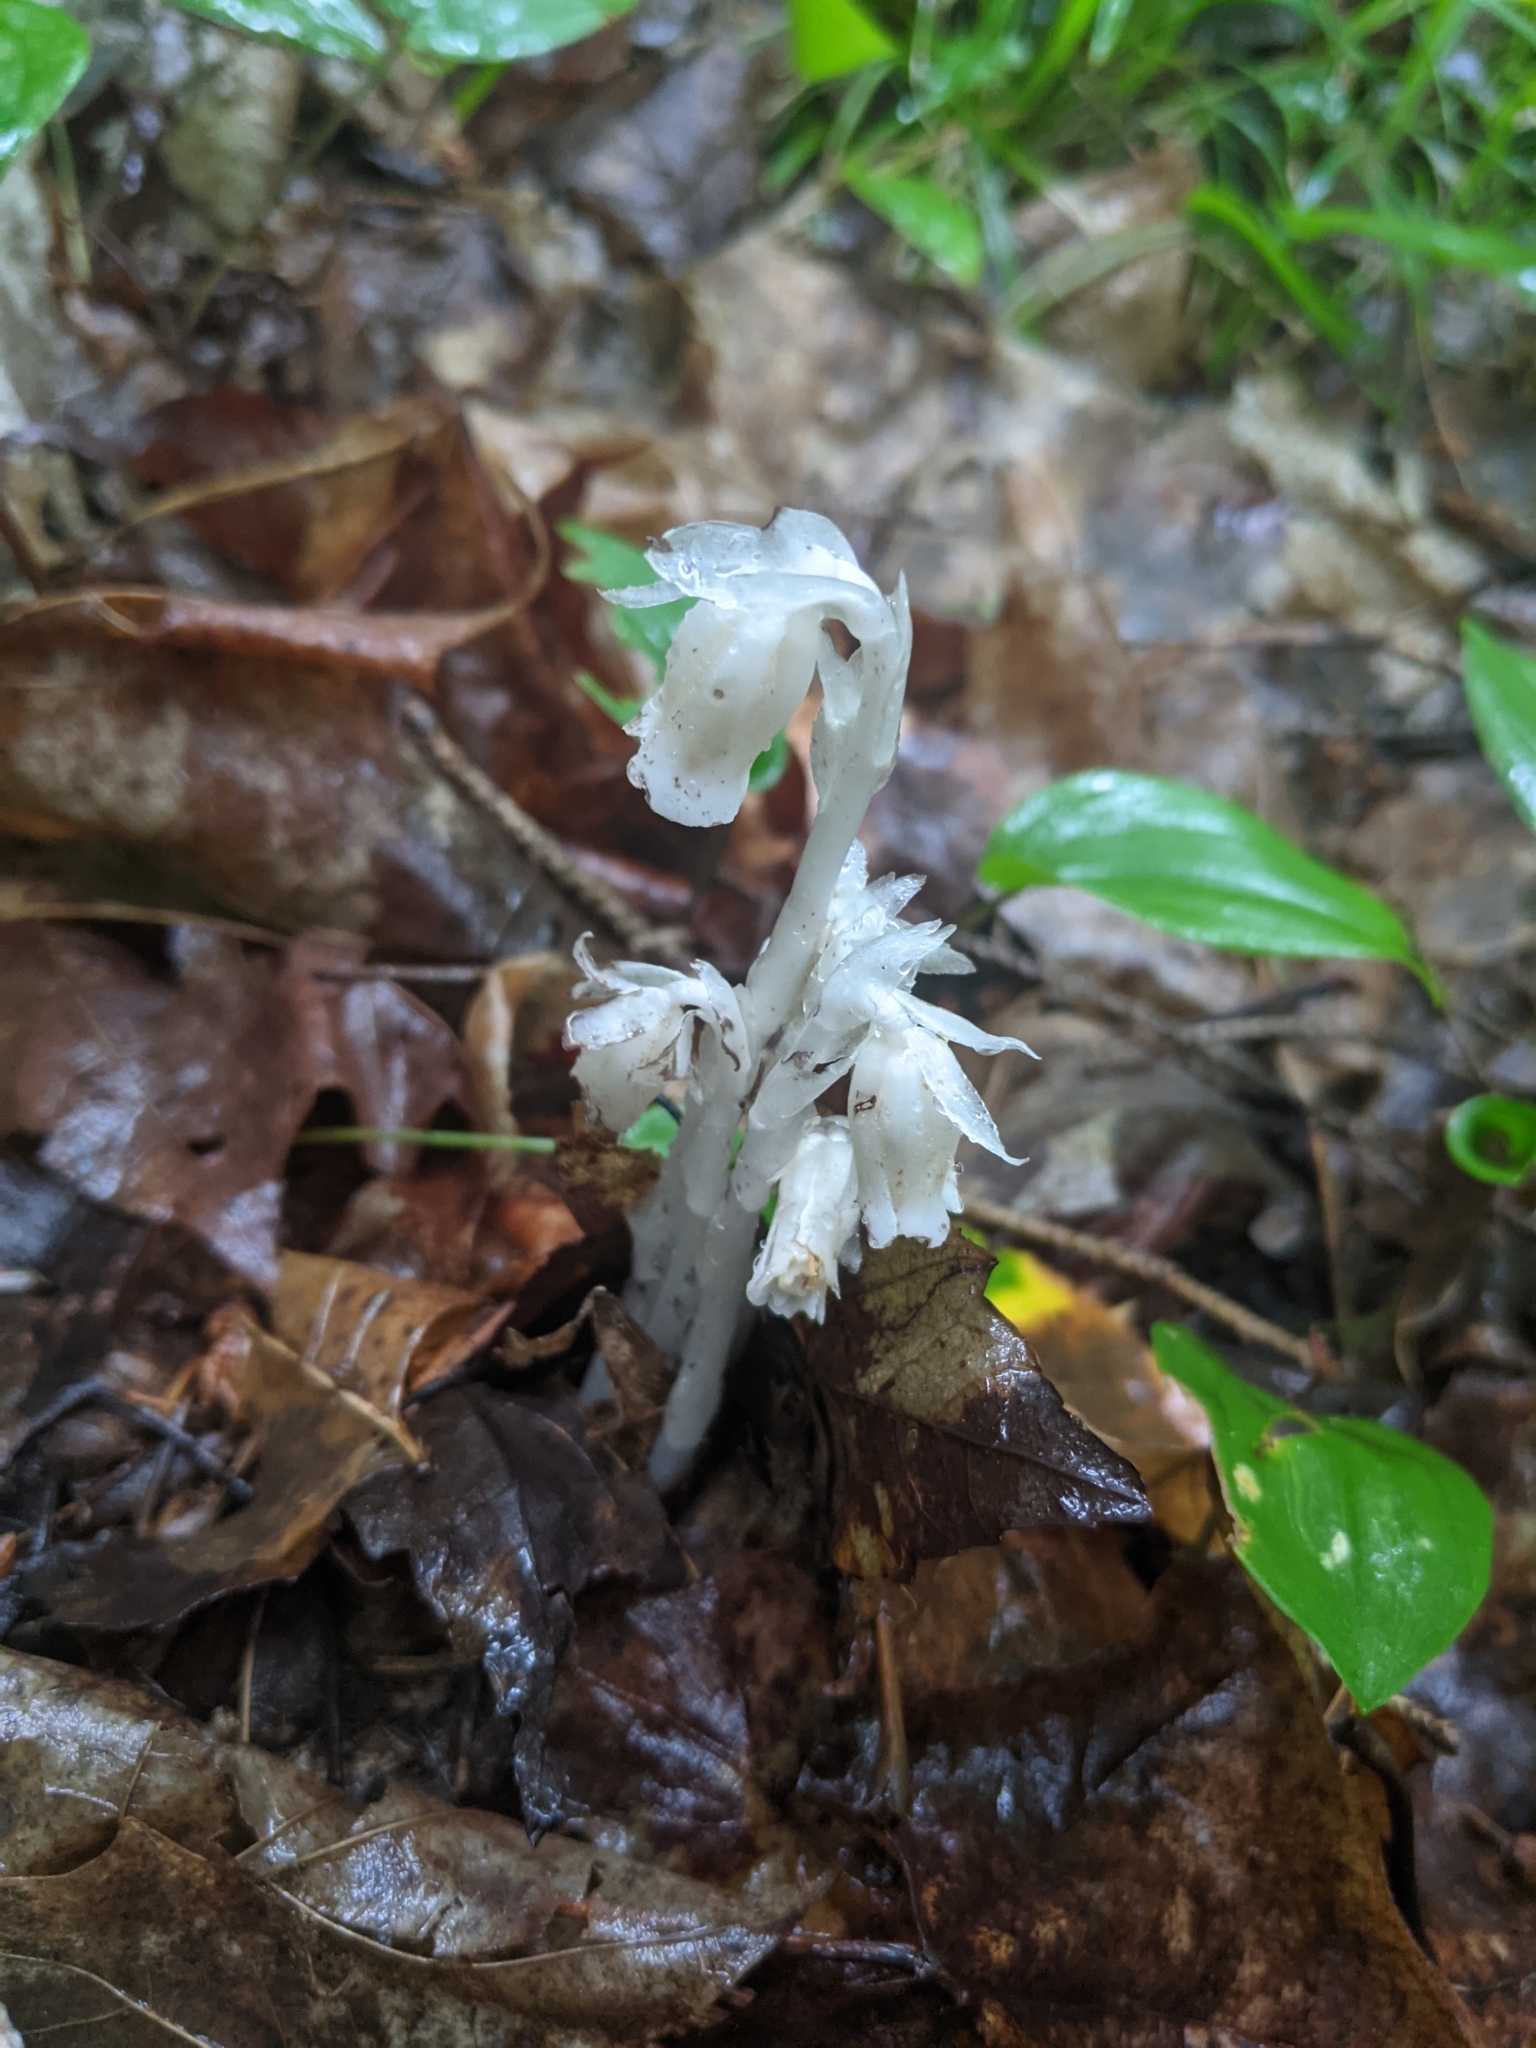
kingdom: Plantae
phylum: Tracheophyta
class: Magnoliopsida
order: Ericales
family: Ericaceae
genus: Monotropa
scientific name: Monotropa uniflora
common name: Convulsion root
